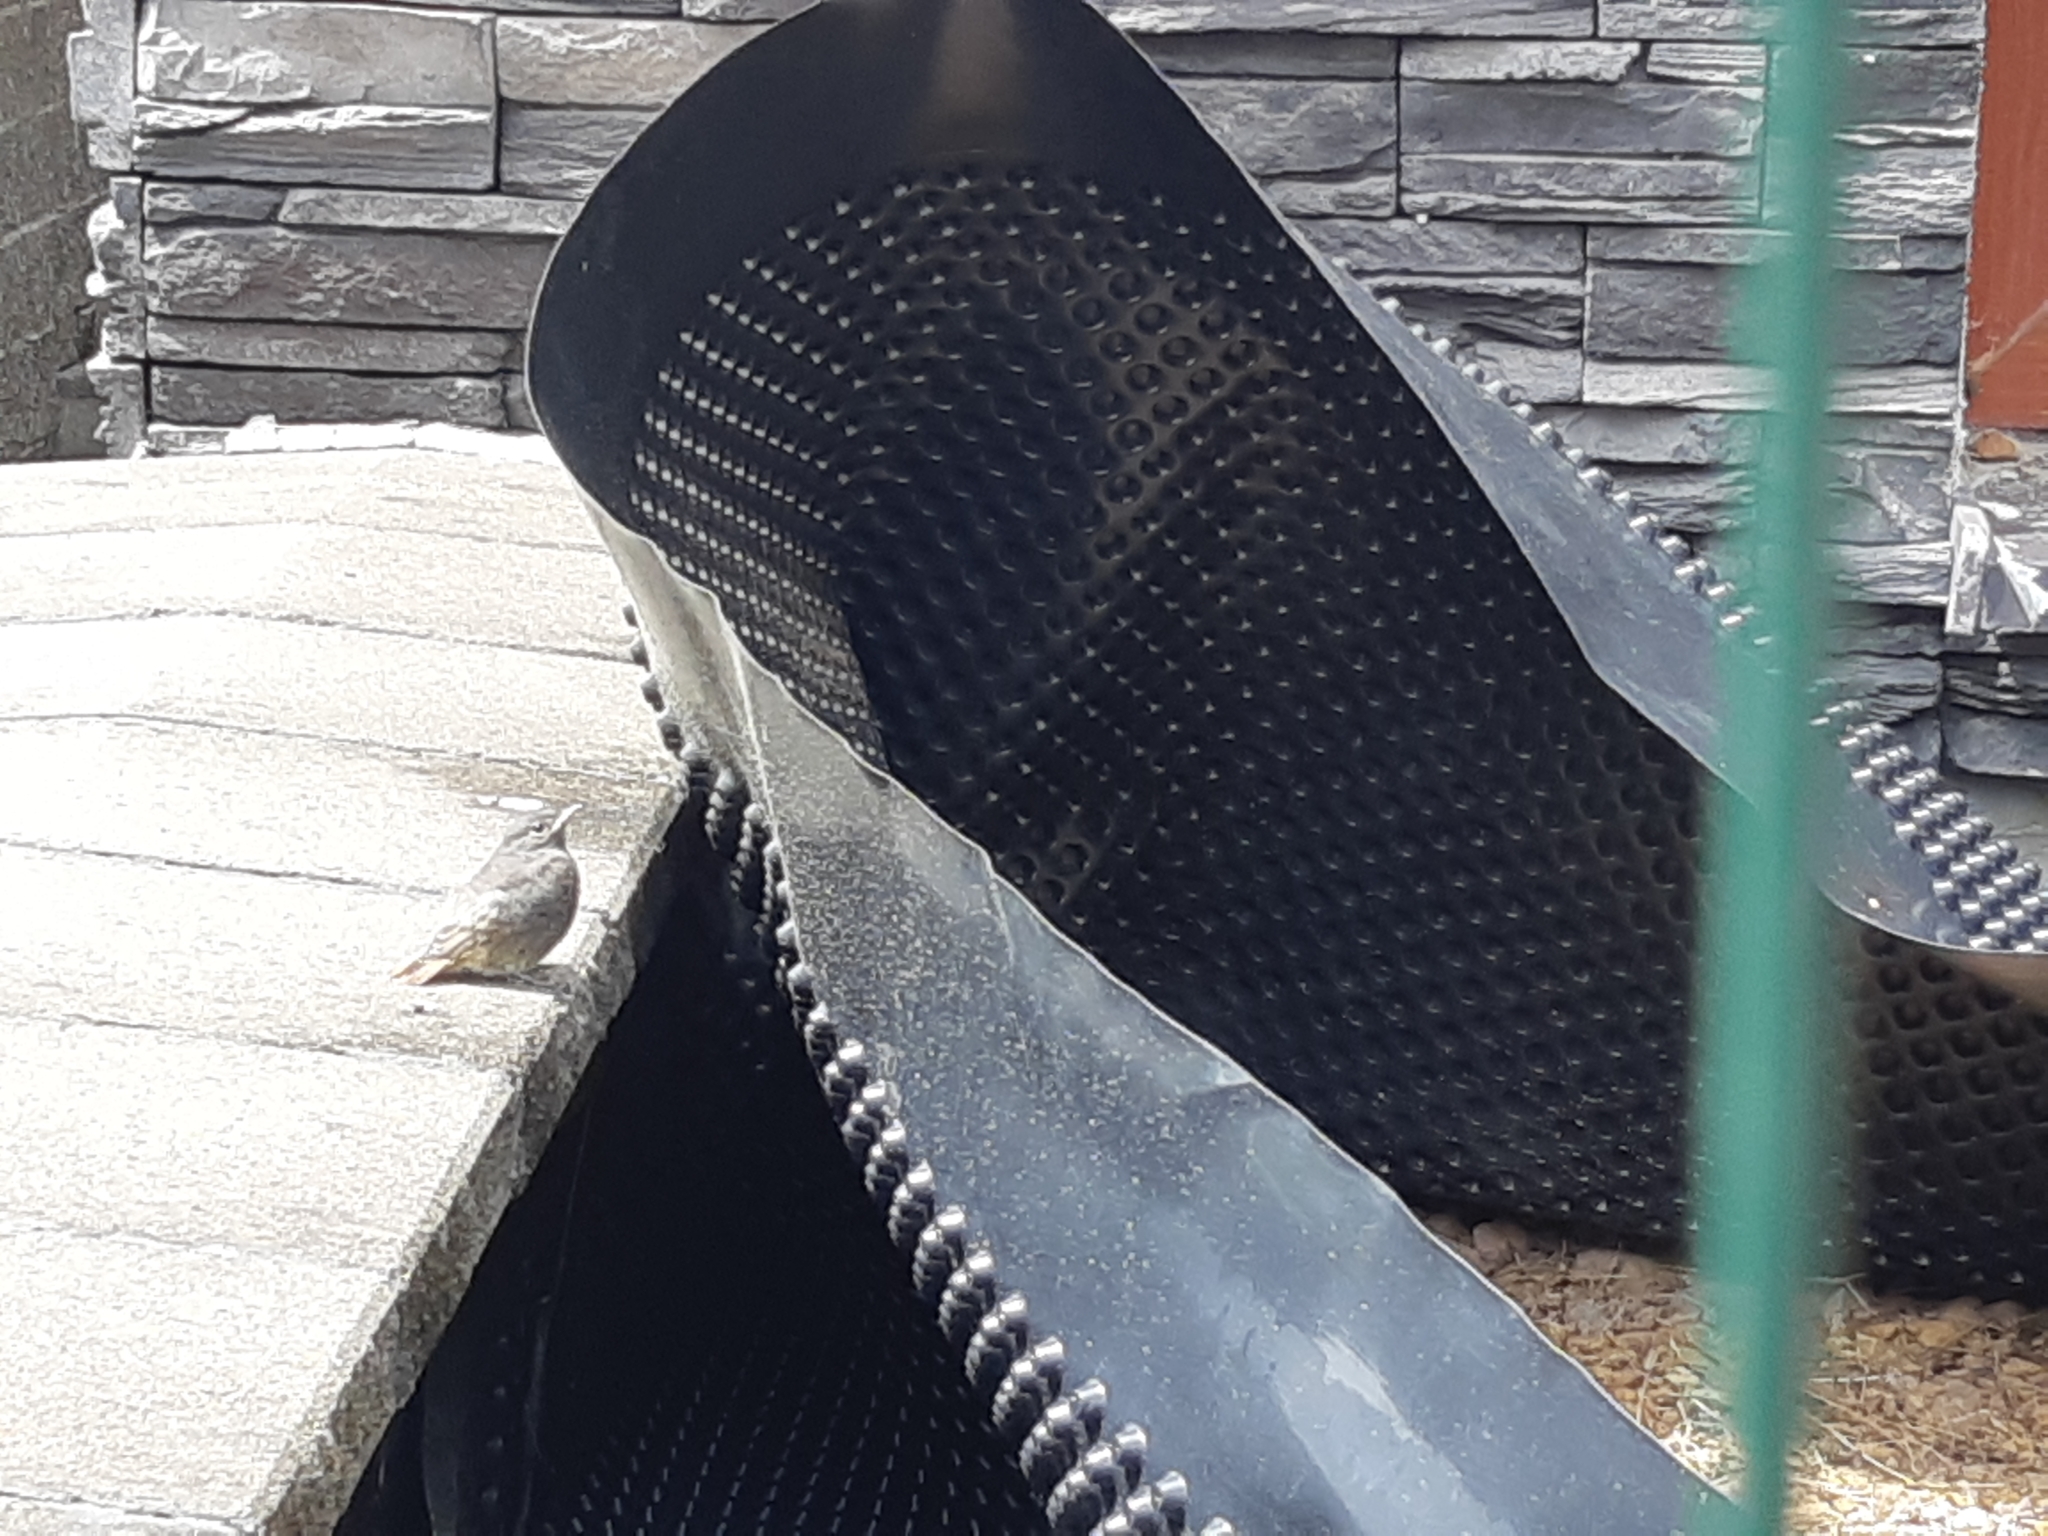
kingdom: Animalia
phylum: Chordata
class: Aves
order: Passeriformes
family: Muscicapidae
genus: Phoenicurus
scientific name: Phoenicurus ochruros
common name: Black redstart
